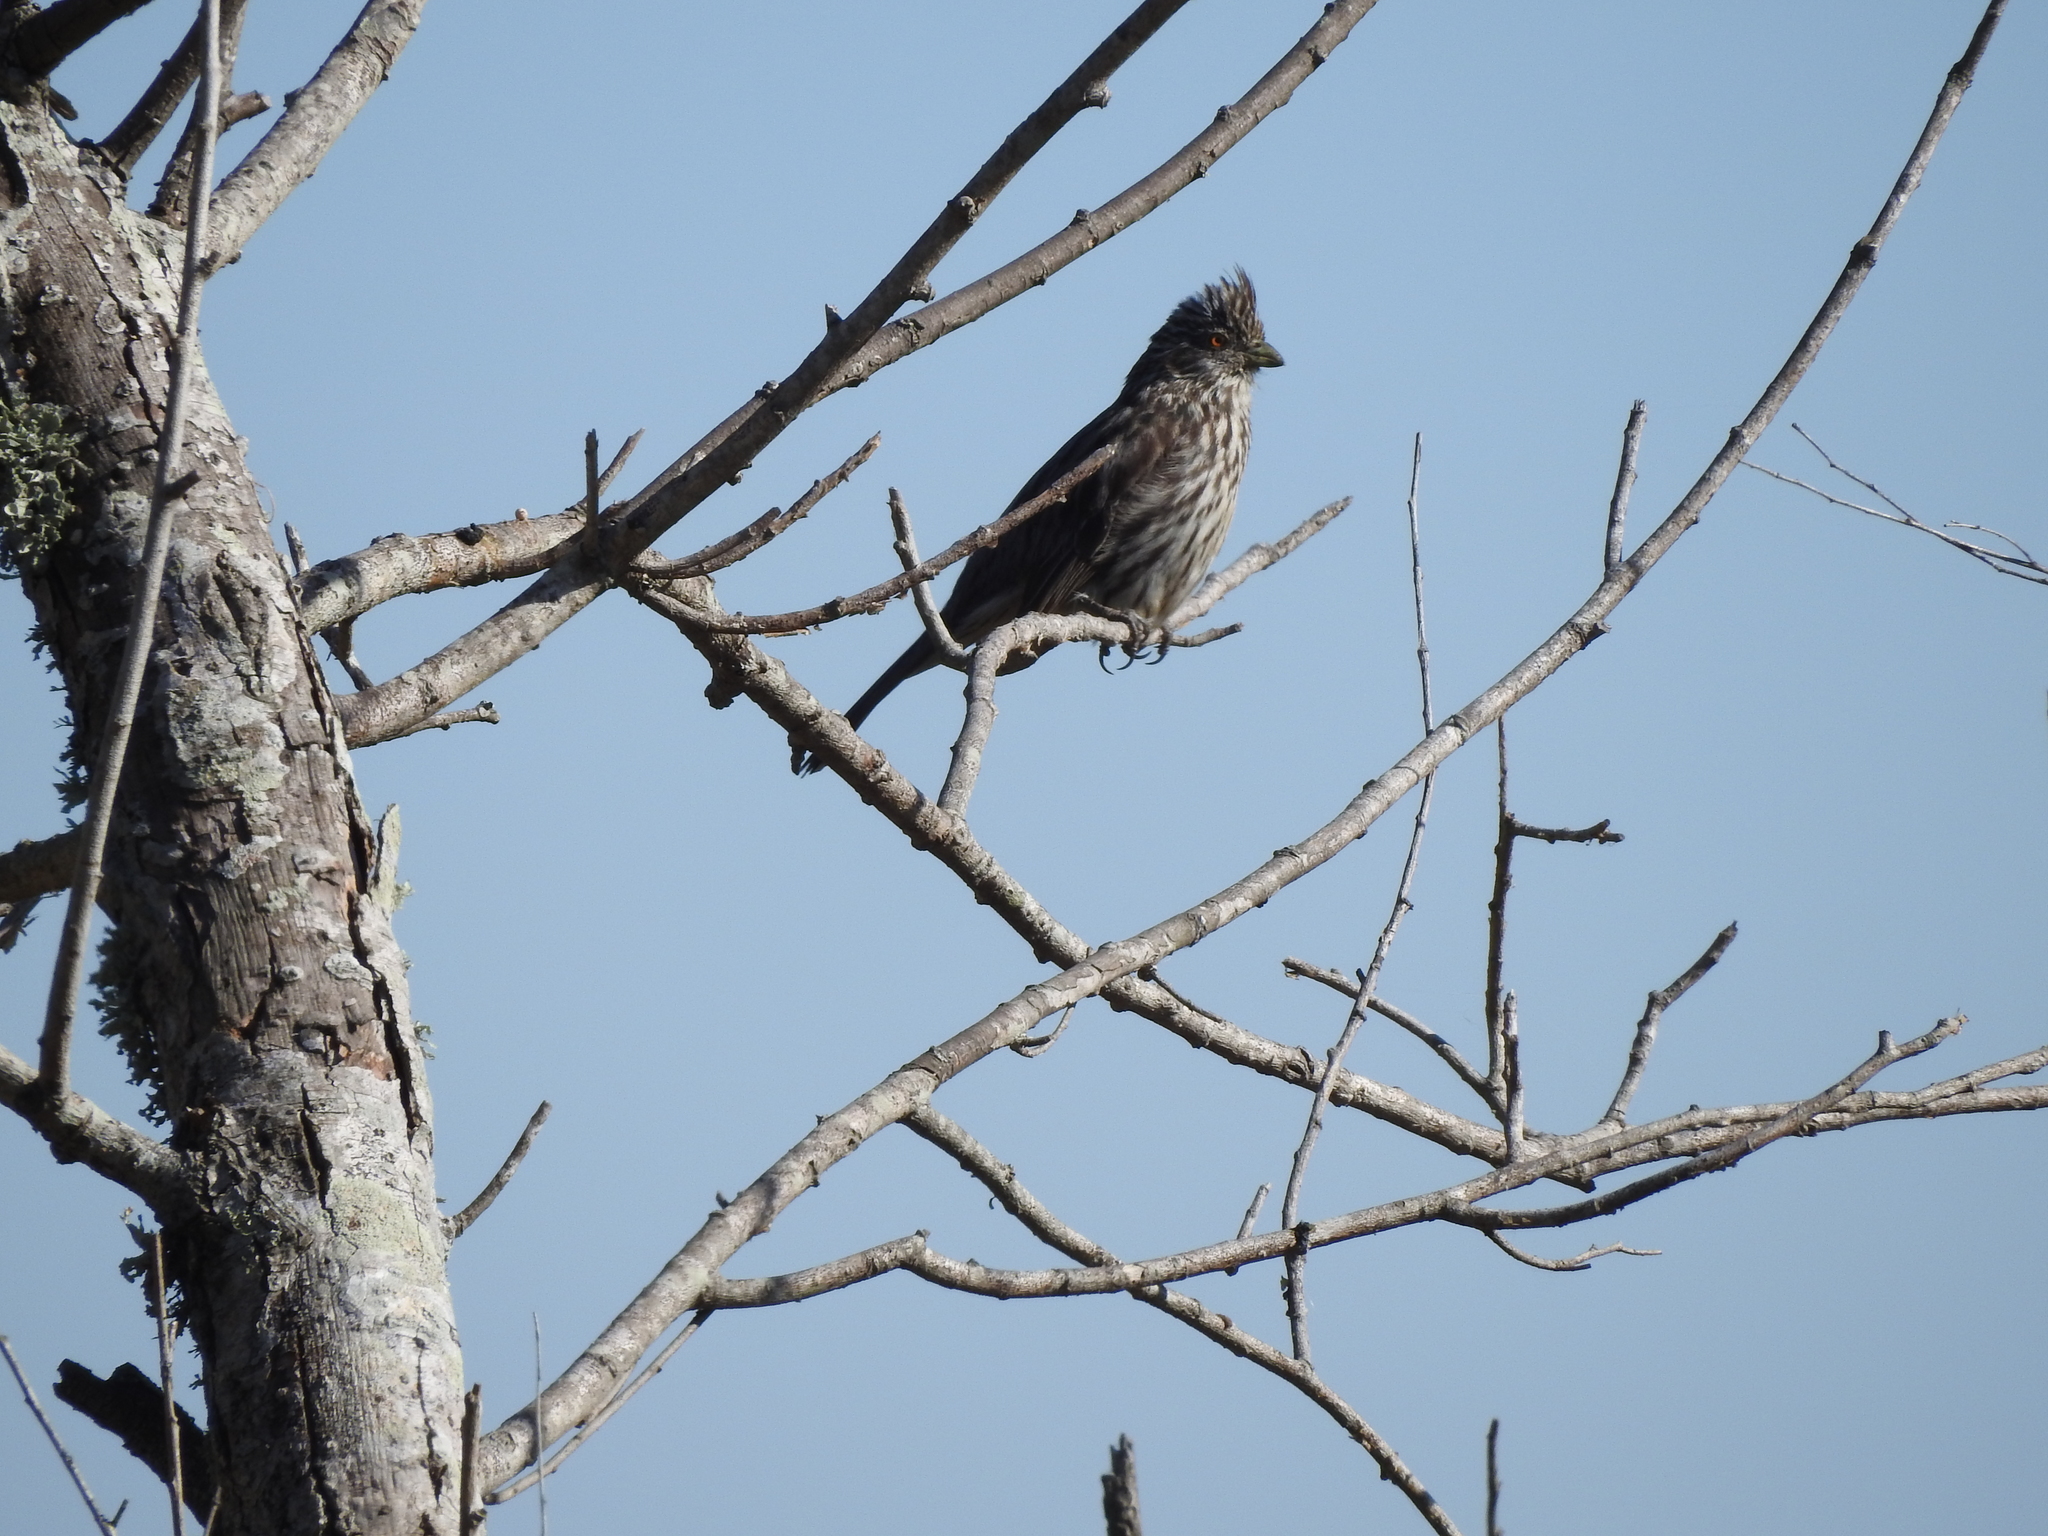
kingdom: Animalia
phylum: Chordata
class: Aves
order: Passeriformes
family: Cotingidae
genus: Phytotoma
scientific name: Phytotoma rutila
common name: White-tipped plantcutter
